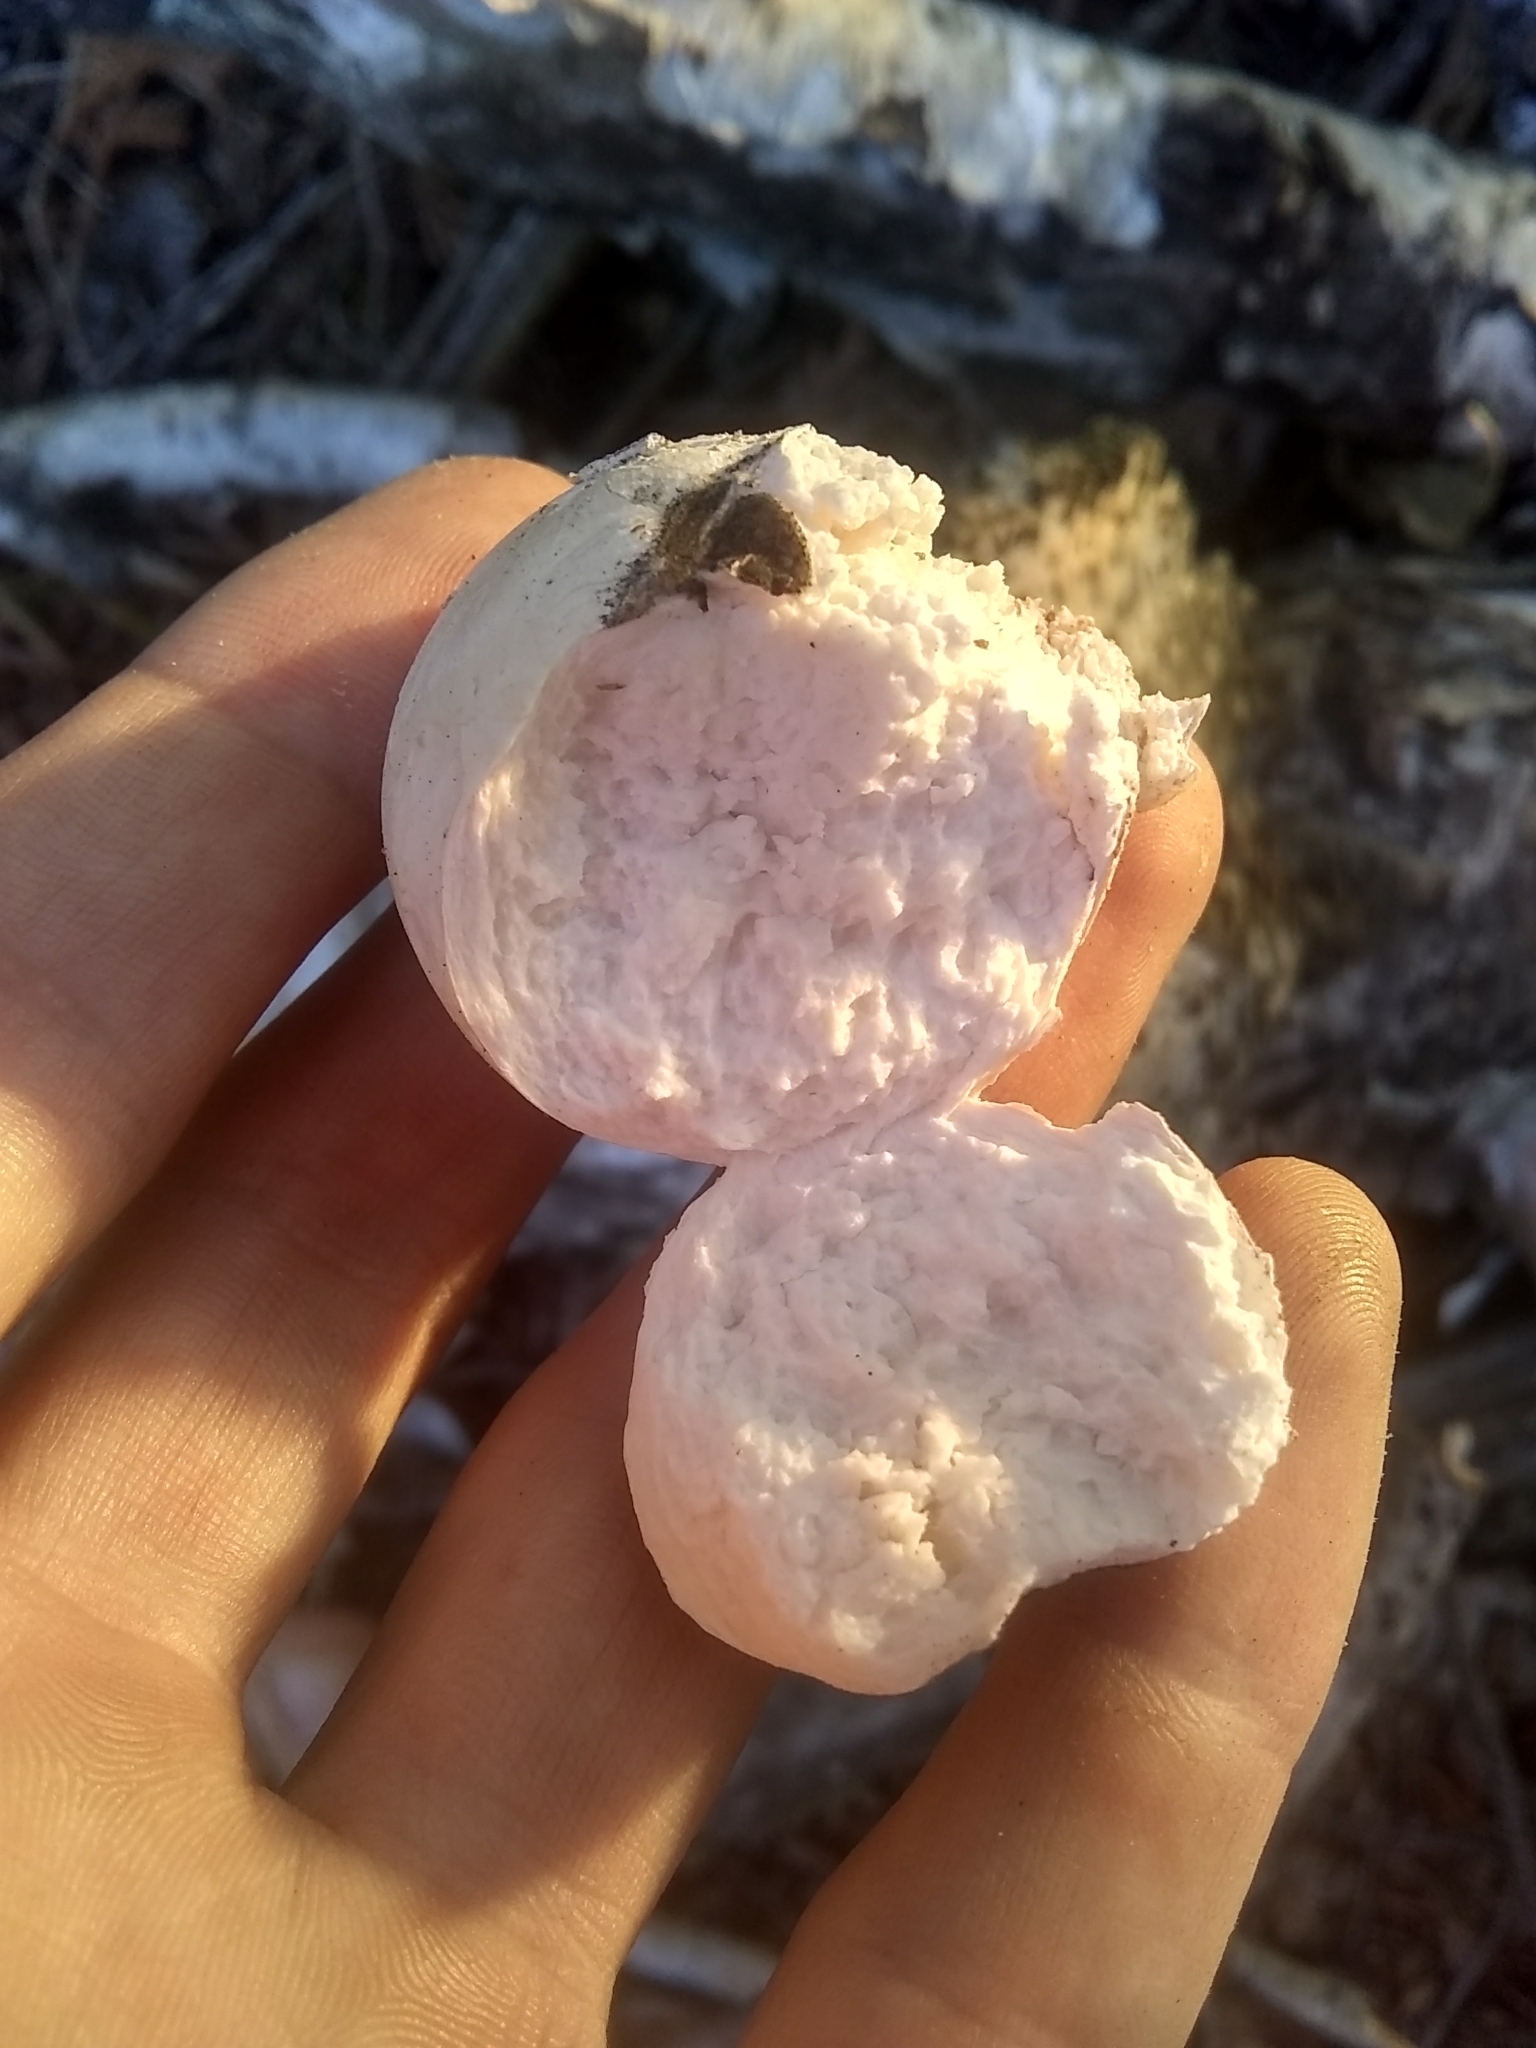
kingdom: Fungi
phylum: Basidiomycota
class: Agaricomycetes
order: Polyporales
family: Fomitopsidaceae
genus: Fomitopsis
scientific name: Fomitopsis betulina
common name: Birch polypore
